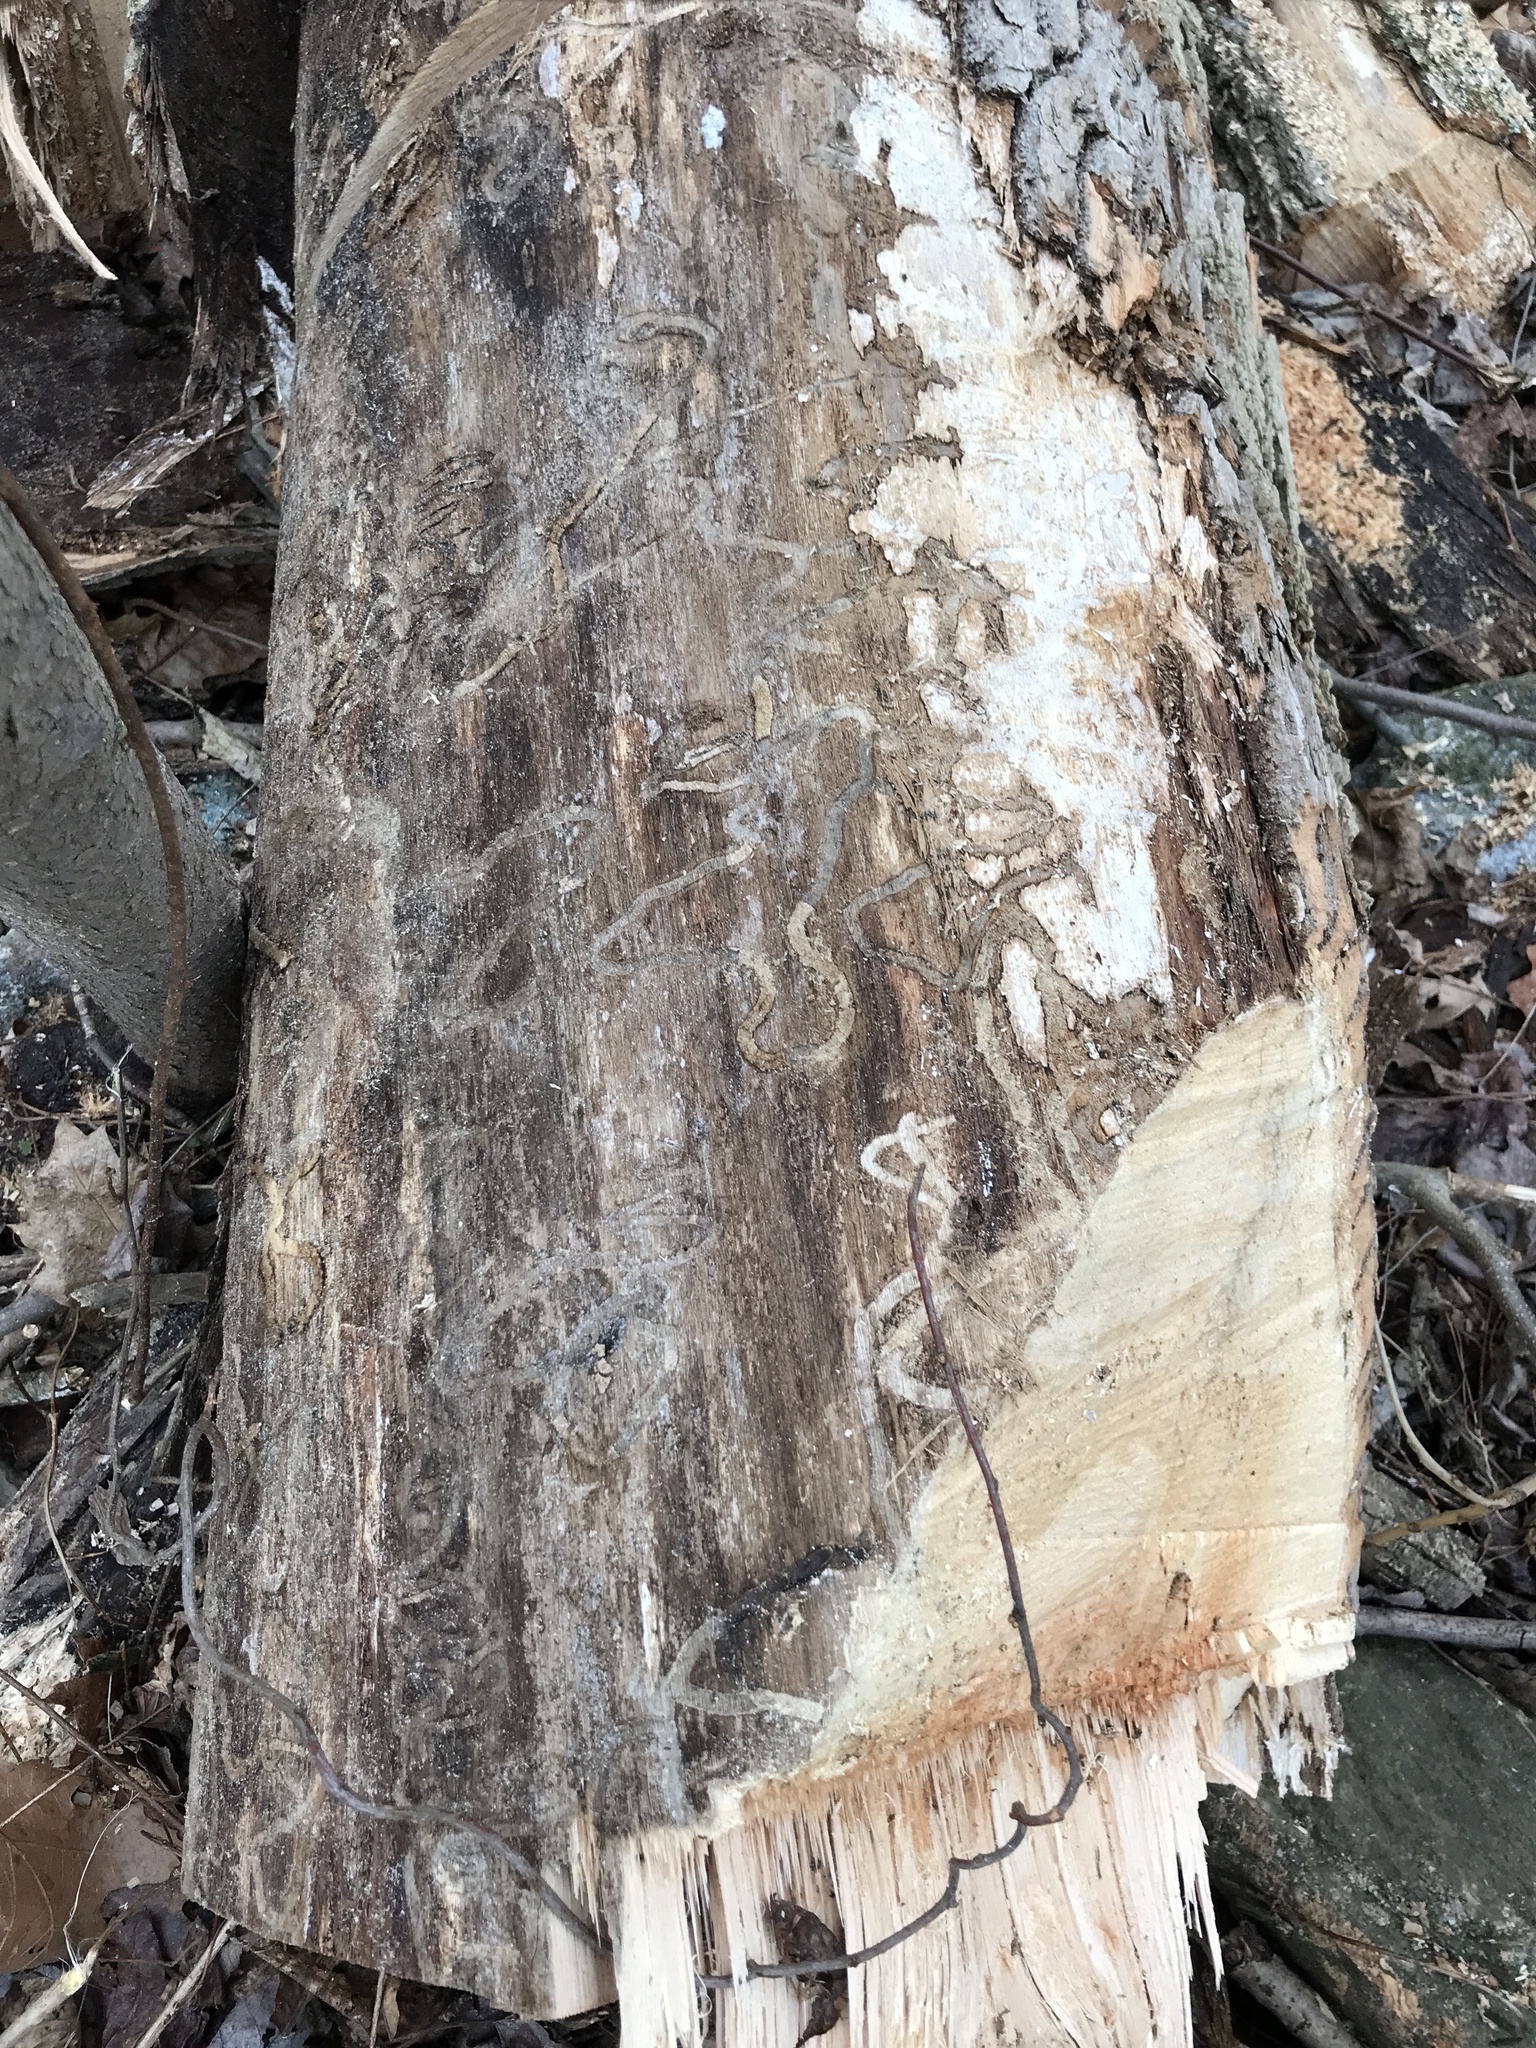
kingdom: Animalia
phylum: Arthropoda
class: Insecta
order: Coleoptera
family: Buprestidae
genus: Agrilus
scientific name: Agrilus planipennis
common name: Emerald ash borer
